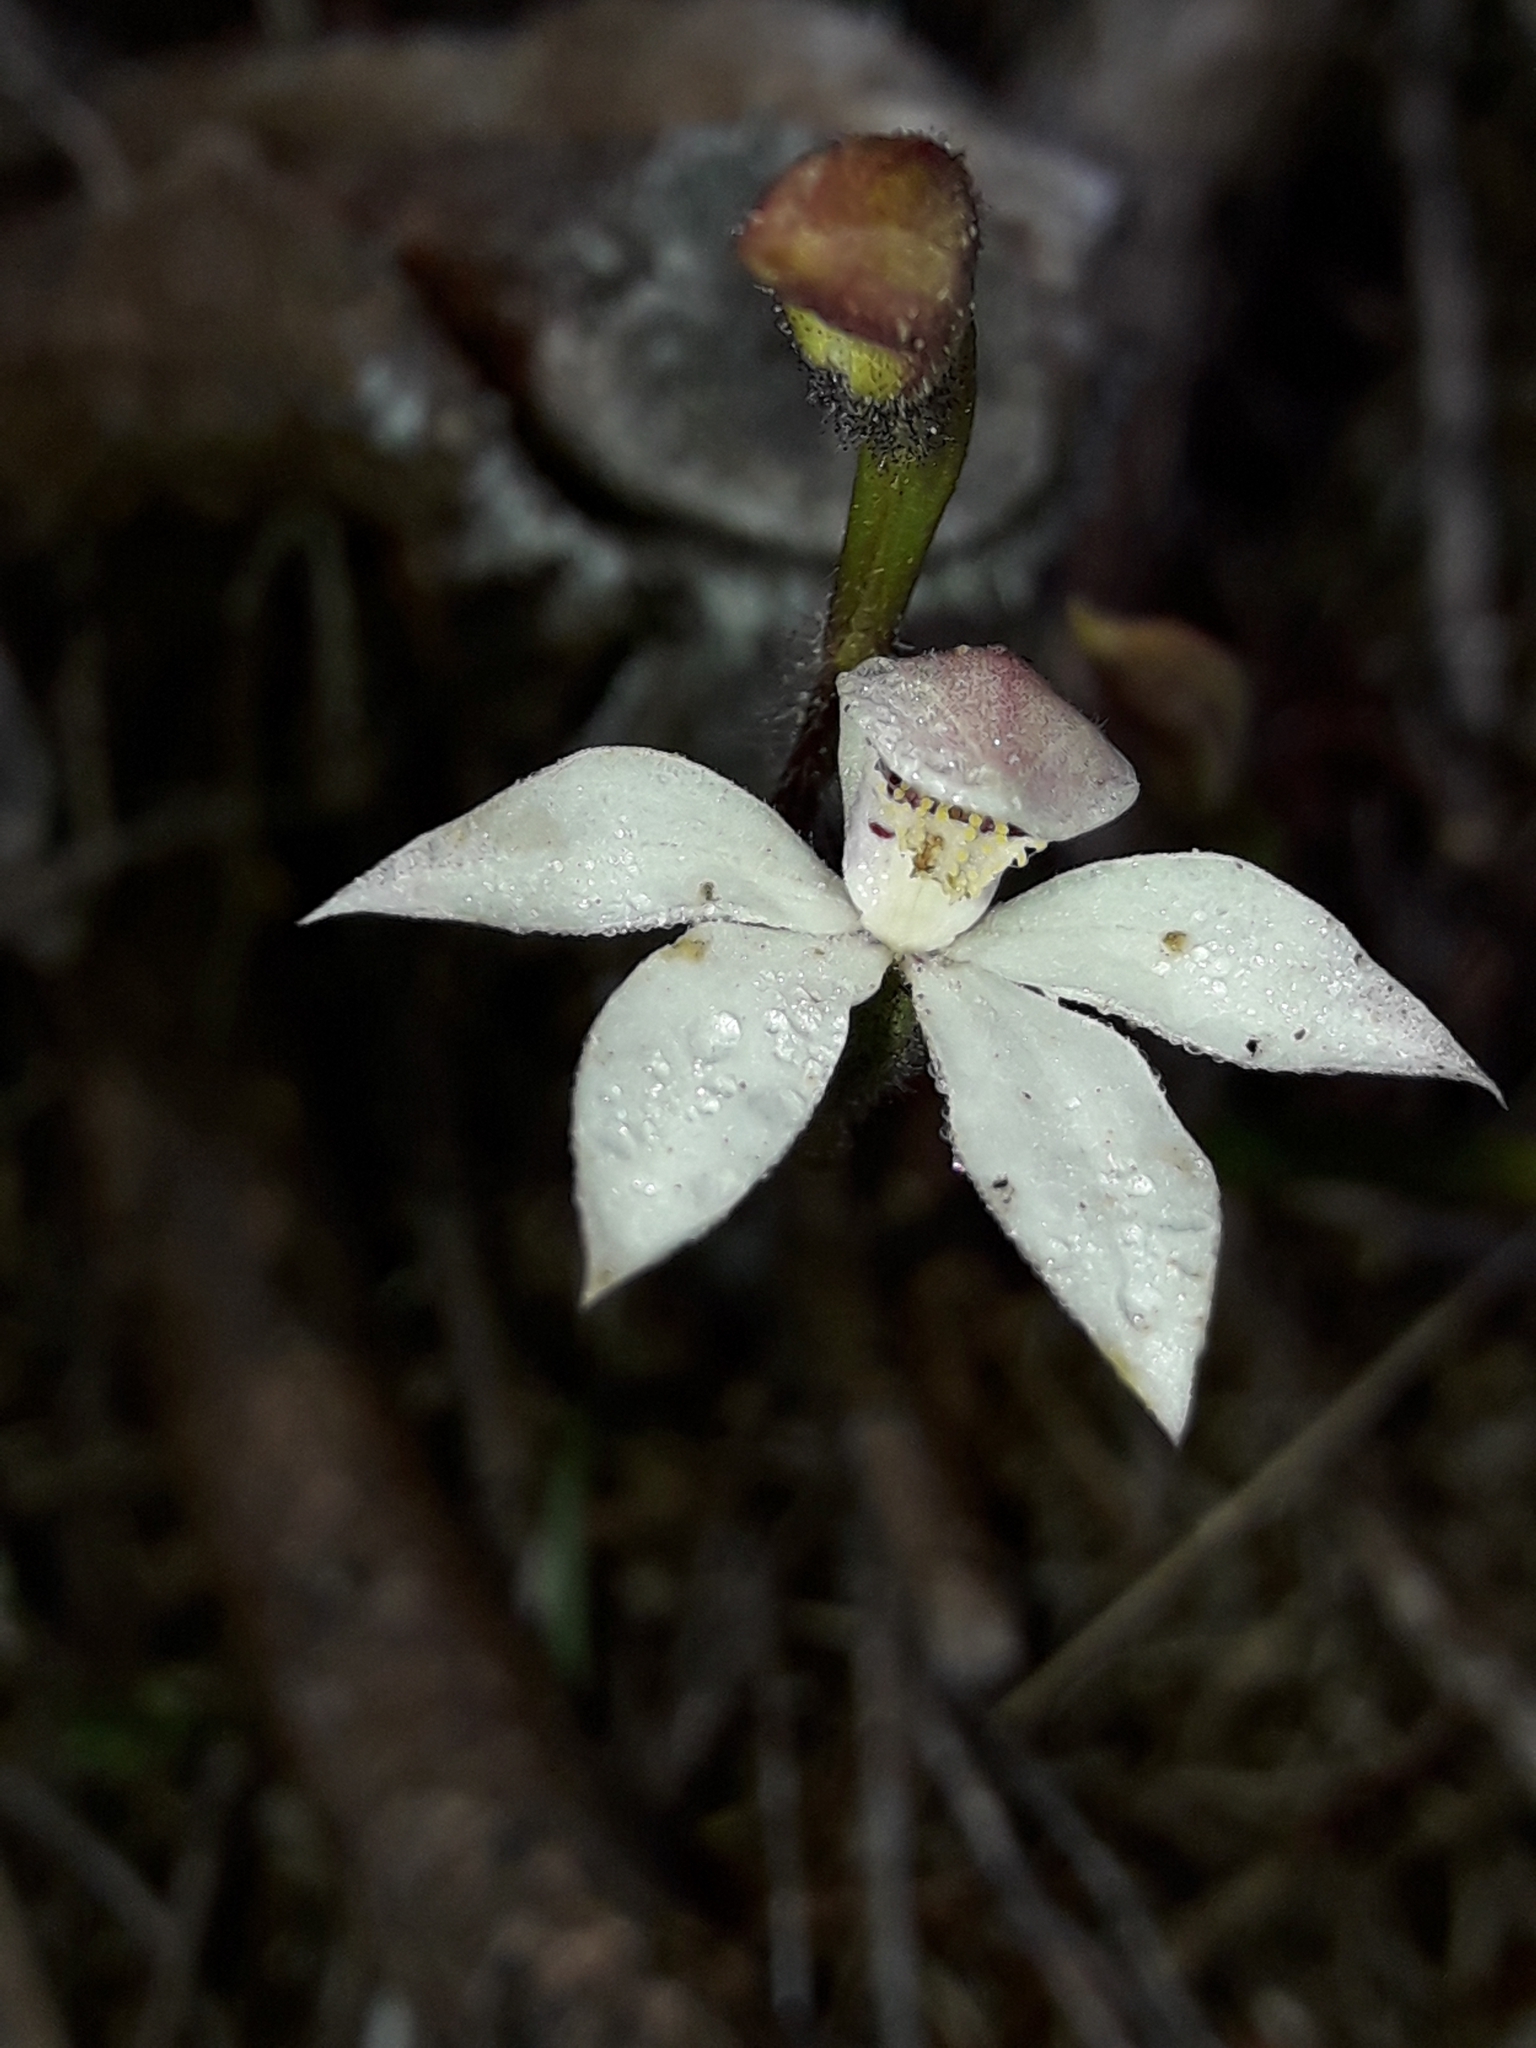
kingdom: Plantae
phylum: Tracheophyta
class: Liliopsida
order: Asparagales
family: Orchidaceae
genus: Caladenia
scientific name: Caladenia lyallii
